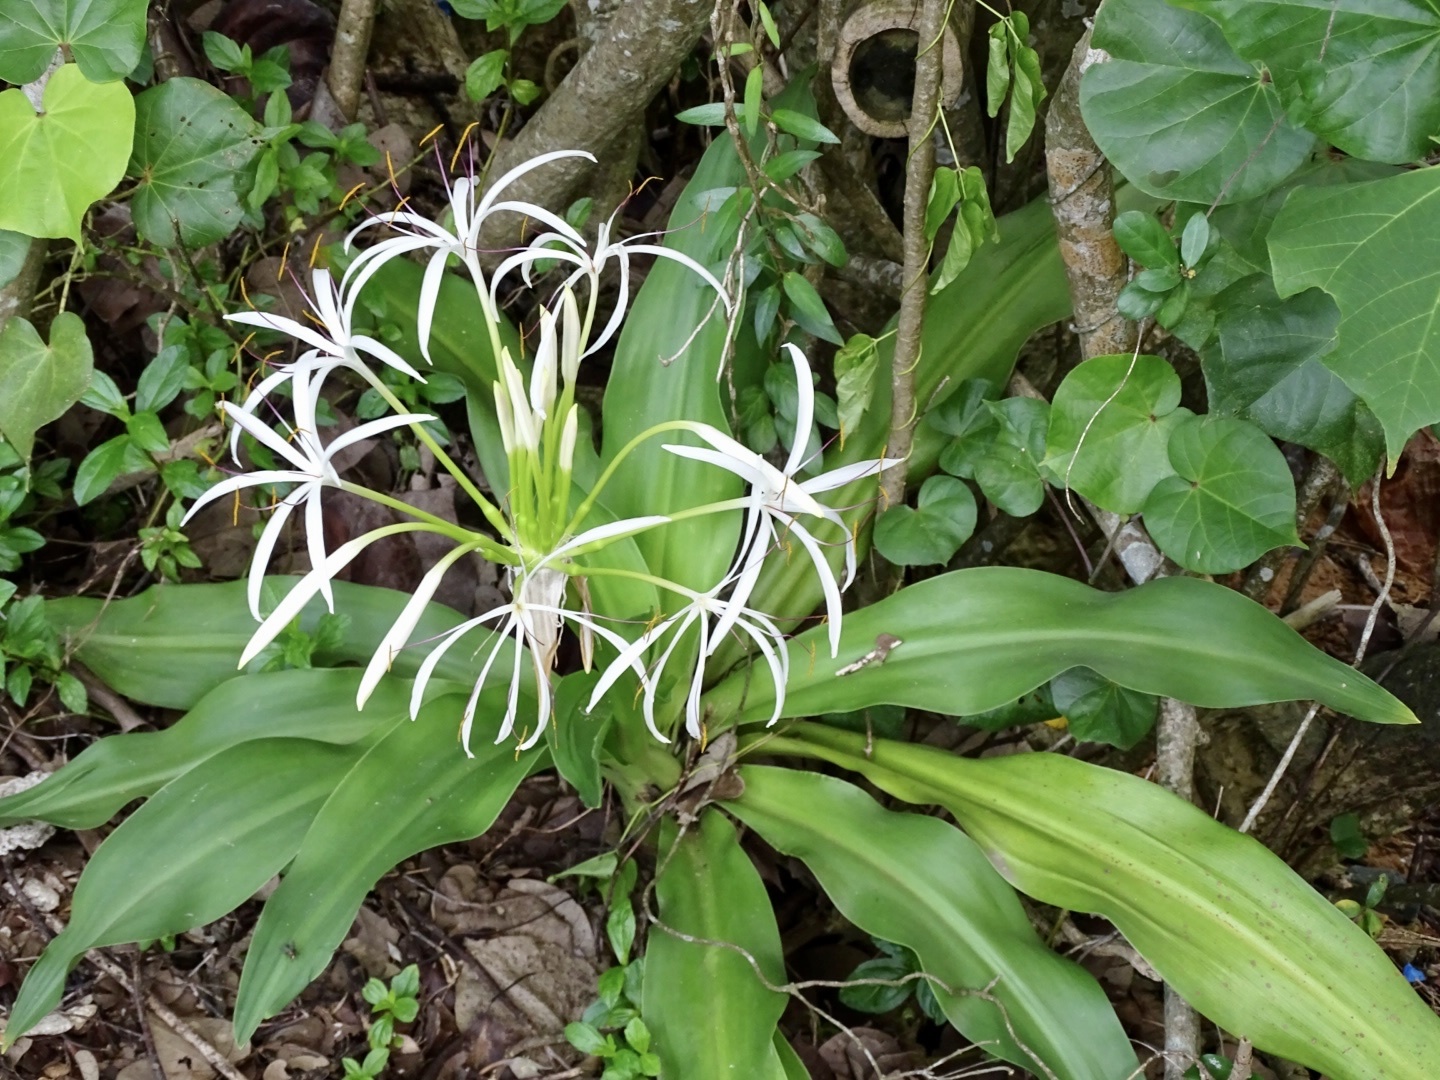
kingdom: Plantae
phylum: Tracheophyta
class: Liliopsida
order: Asparagales
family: Amaryllidaceae
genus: Crinum
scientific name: Crinum asiaticum
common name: Poisonbulb
